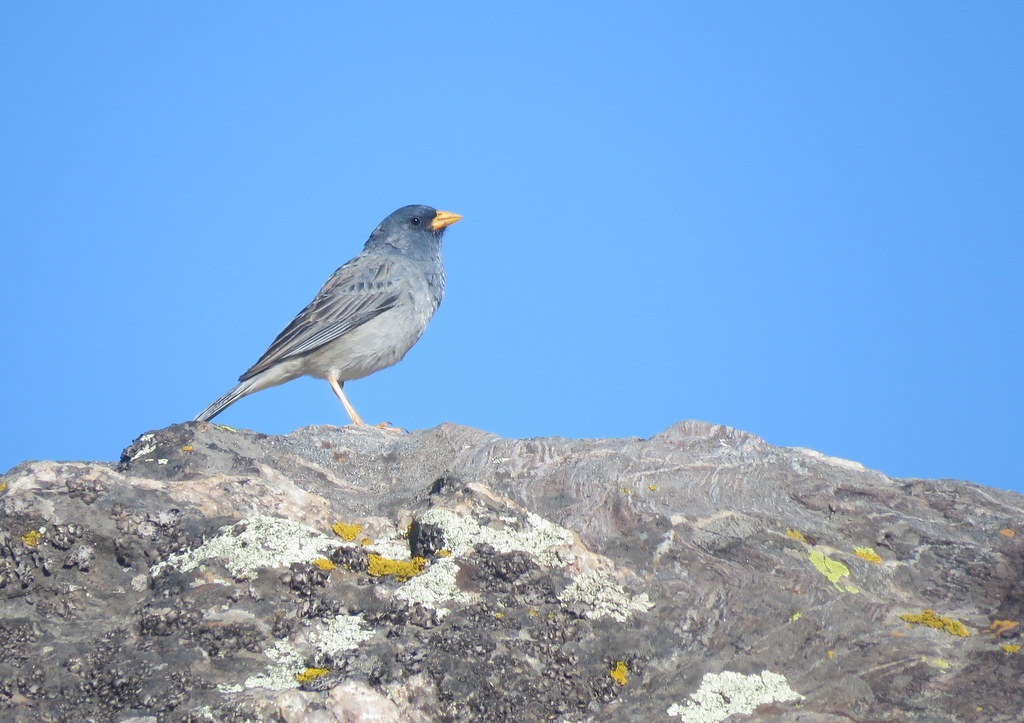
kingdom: Animalia
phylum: Chordata
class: Aves
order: Passeriformes
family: Thraupidae
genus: Porphyrospiza
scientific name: Porphyrospiza alaudina
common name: Band-tailed sierra finch
